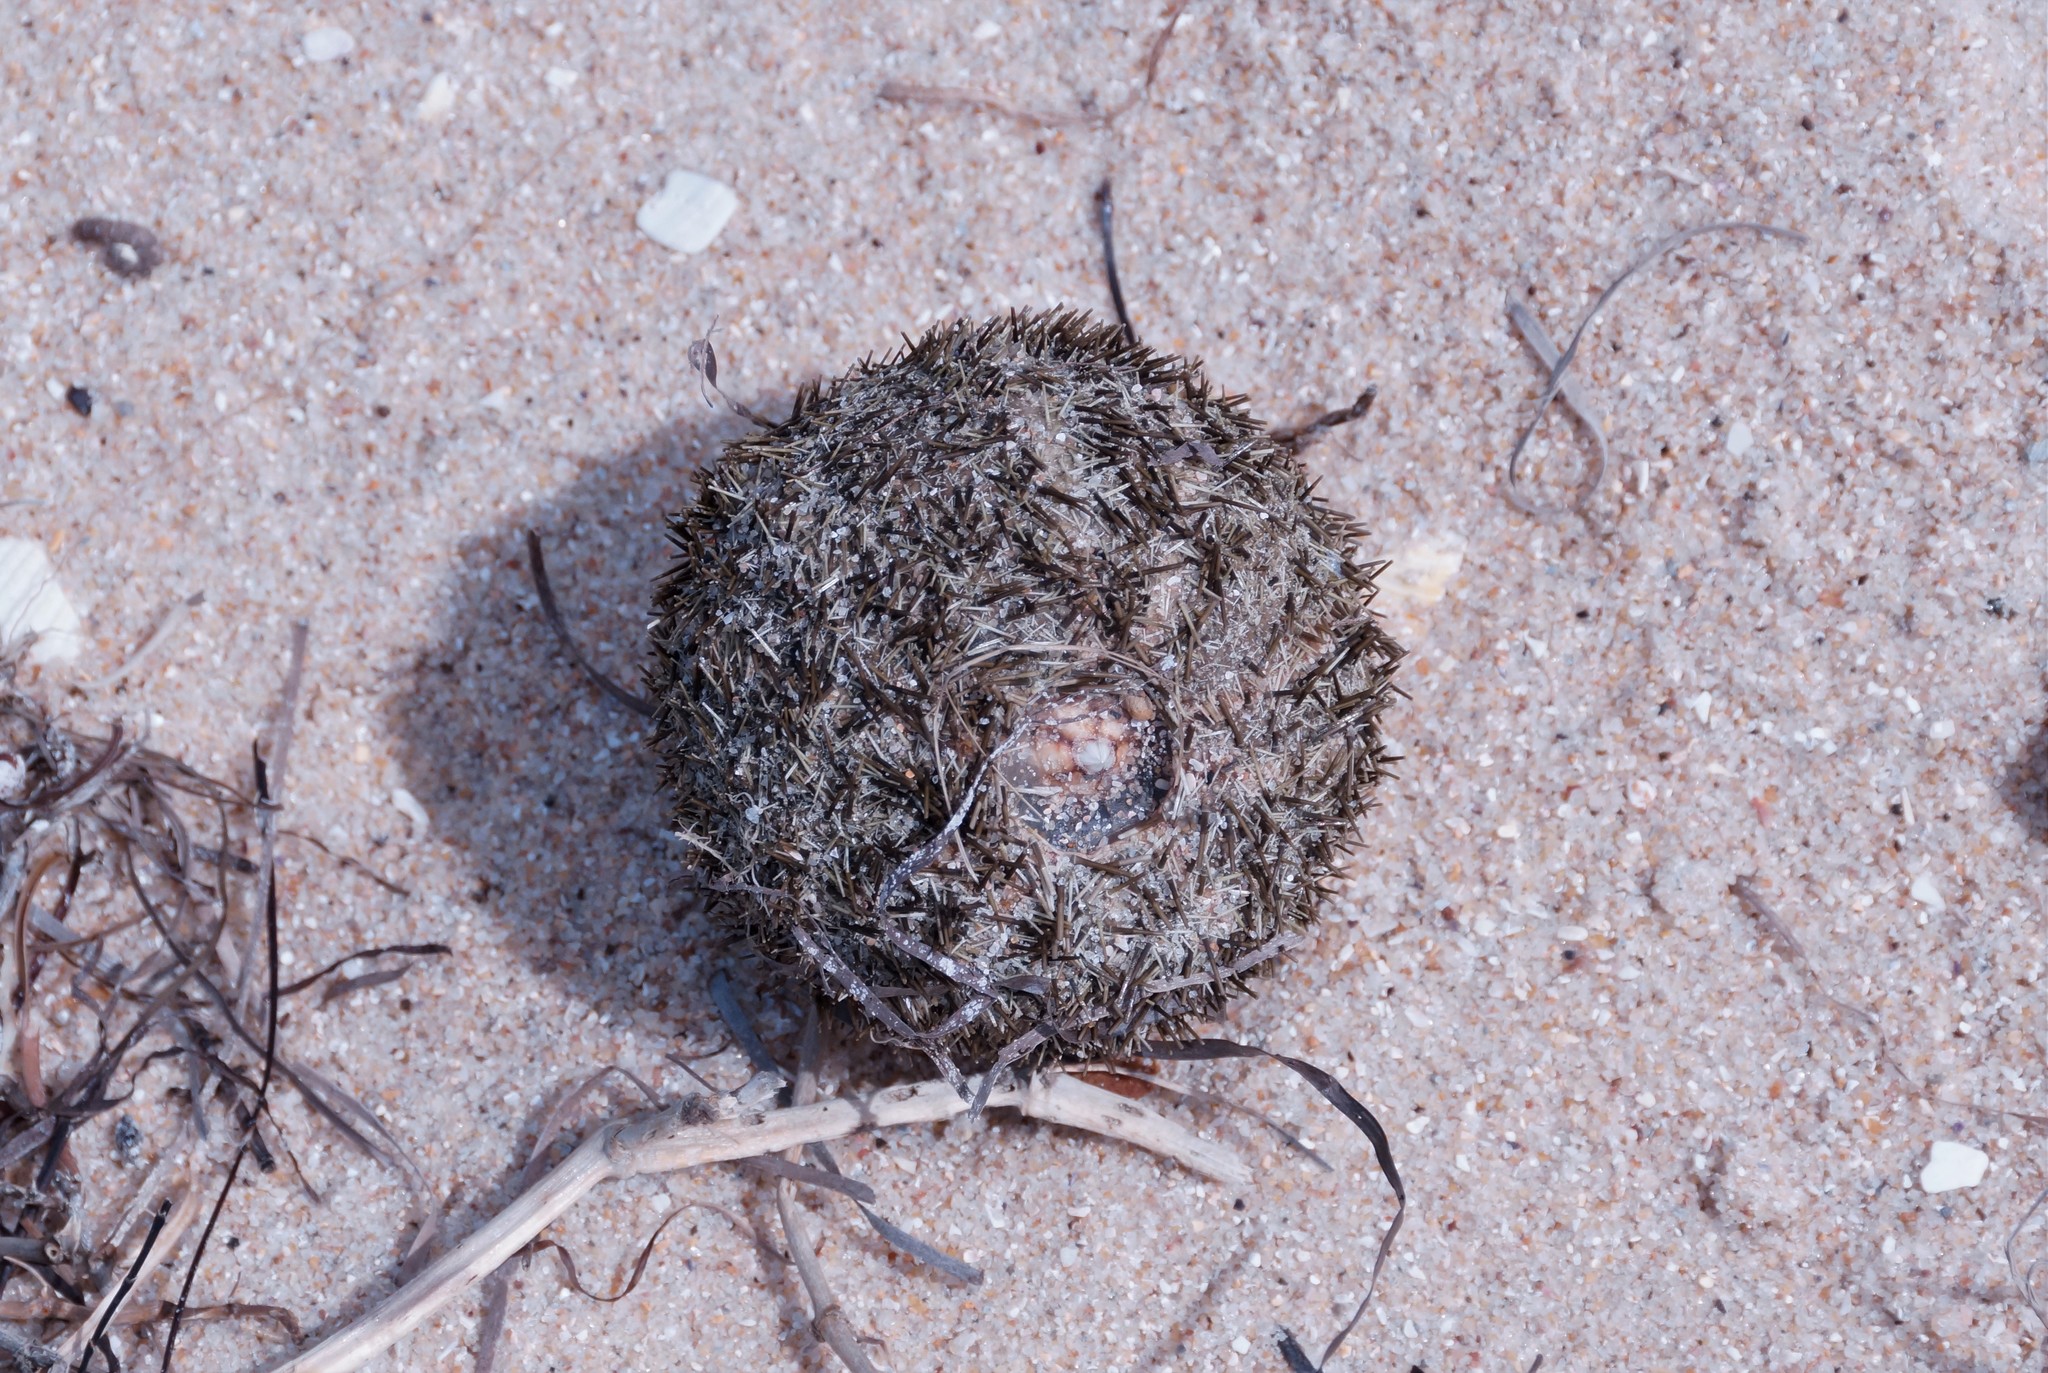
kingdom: Animalia
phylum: Echinodermata
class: Echinoidea
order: Camarodonta
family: Temnopleuridae
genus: Amblypneustes
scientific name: Amblypneustes ovum
